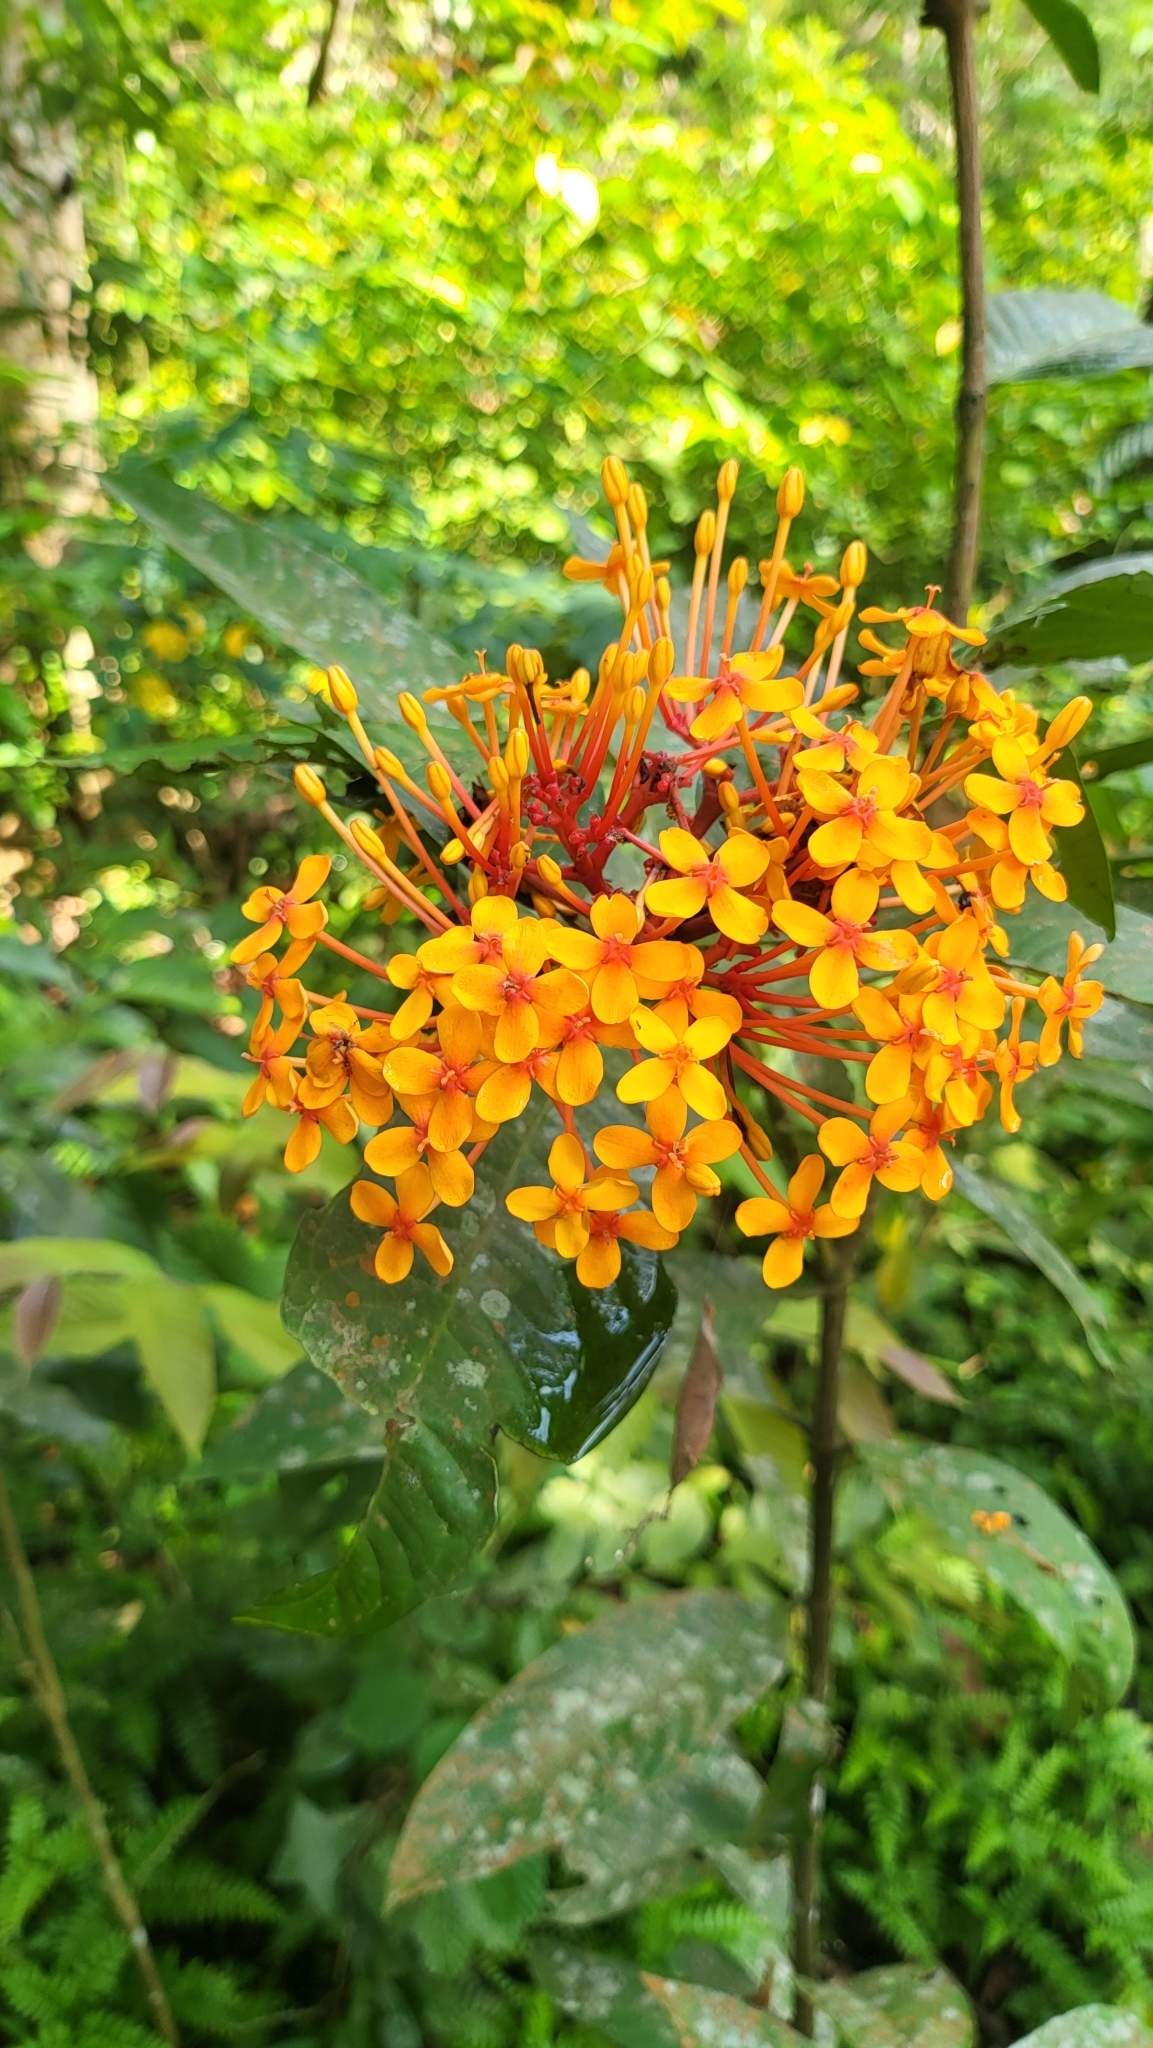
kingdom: Plantae
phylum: Tracheophyta
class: Magnoliopsida
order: Gentianales
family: Rubiaceae
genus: Ixora
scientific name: Ixora congesta
